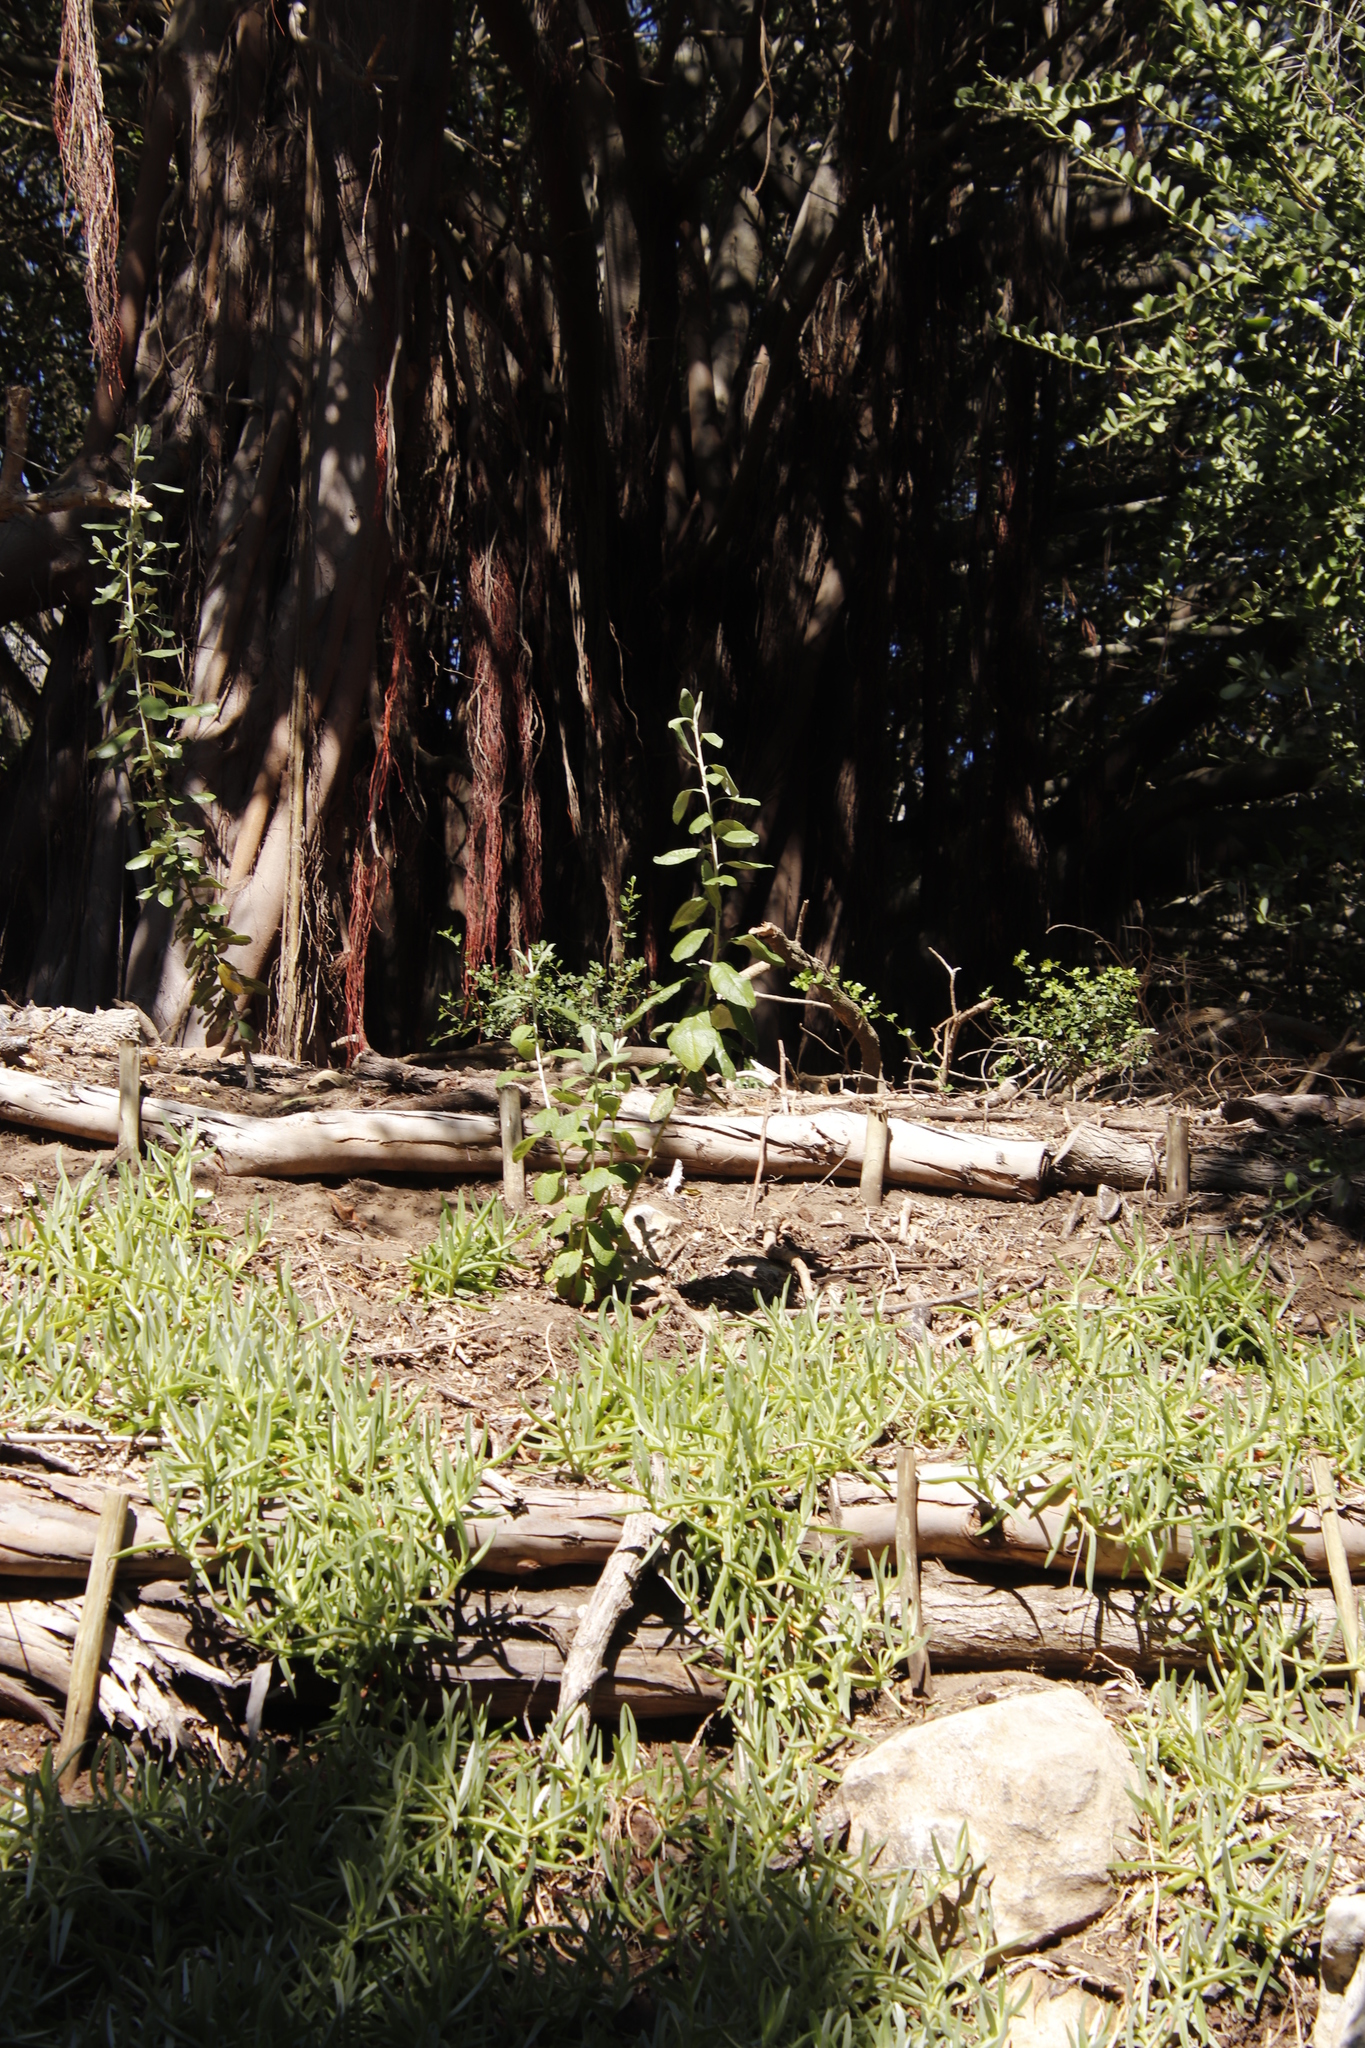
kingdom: Plantae
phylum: Tracheophyta
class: Magnoliopsida
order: Asterales
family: Asteraceae
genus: Tarchonanthus
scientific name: Tarchonanthus littoralis
